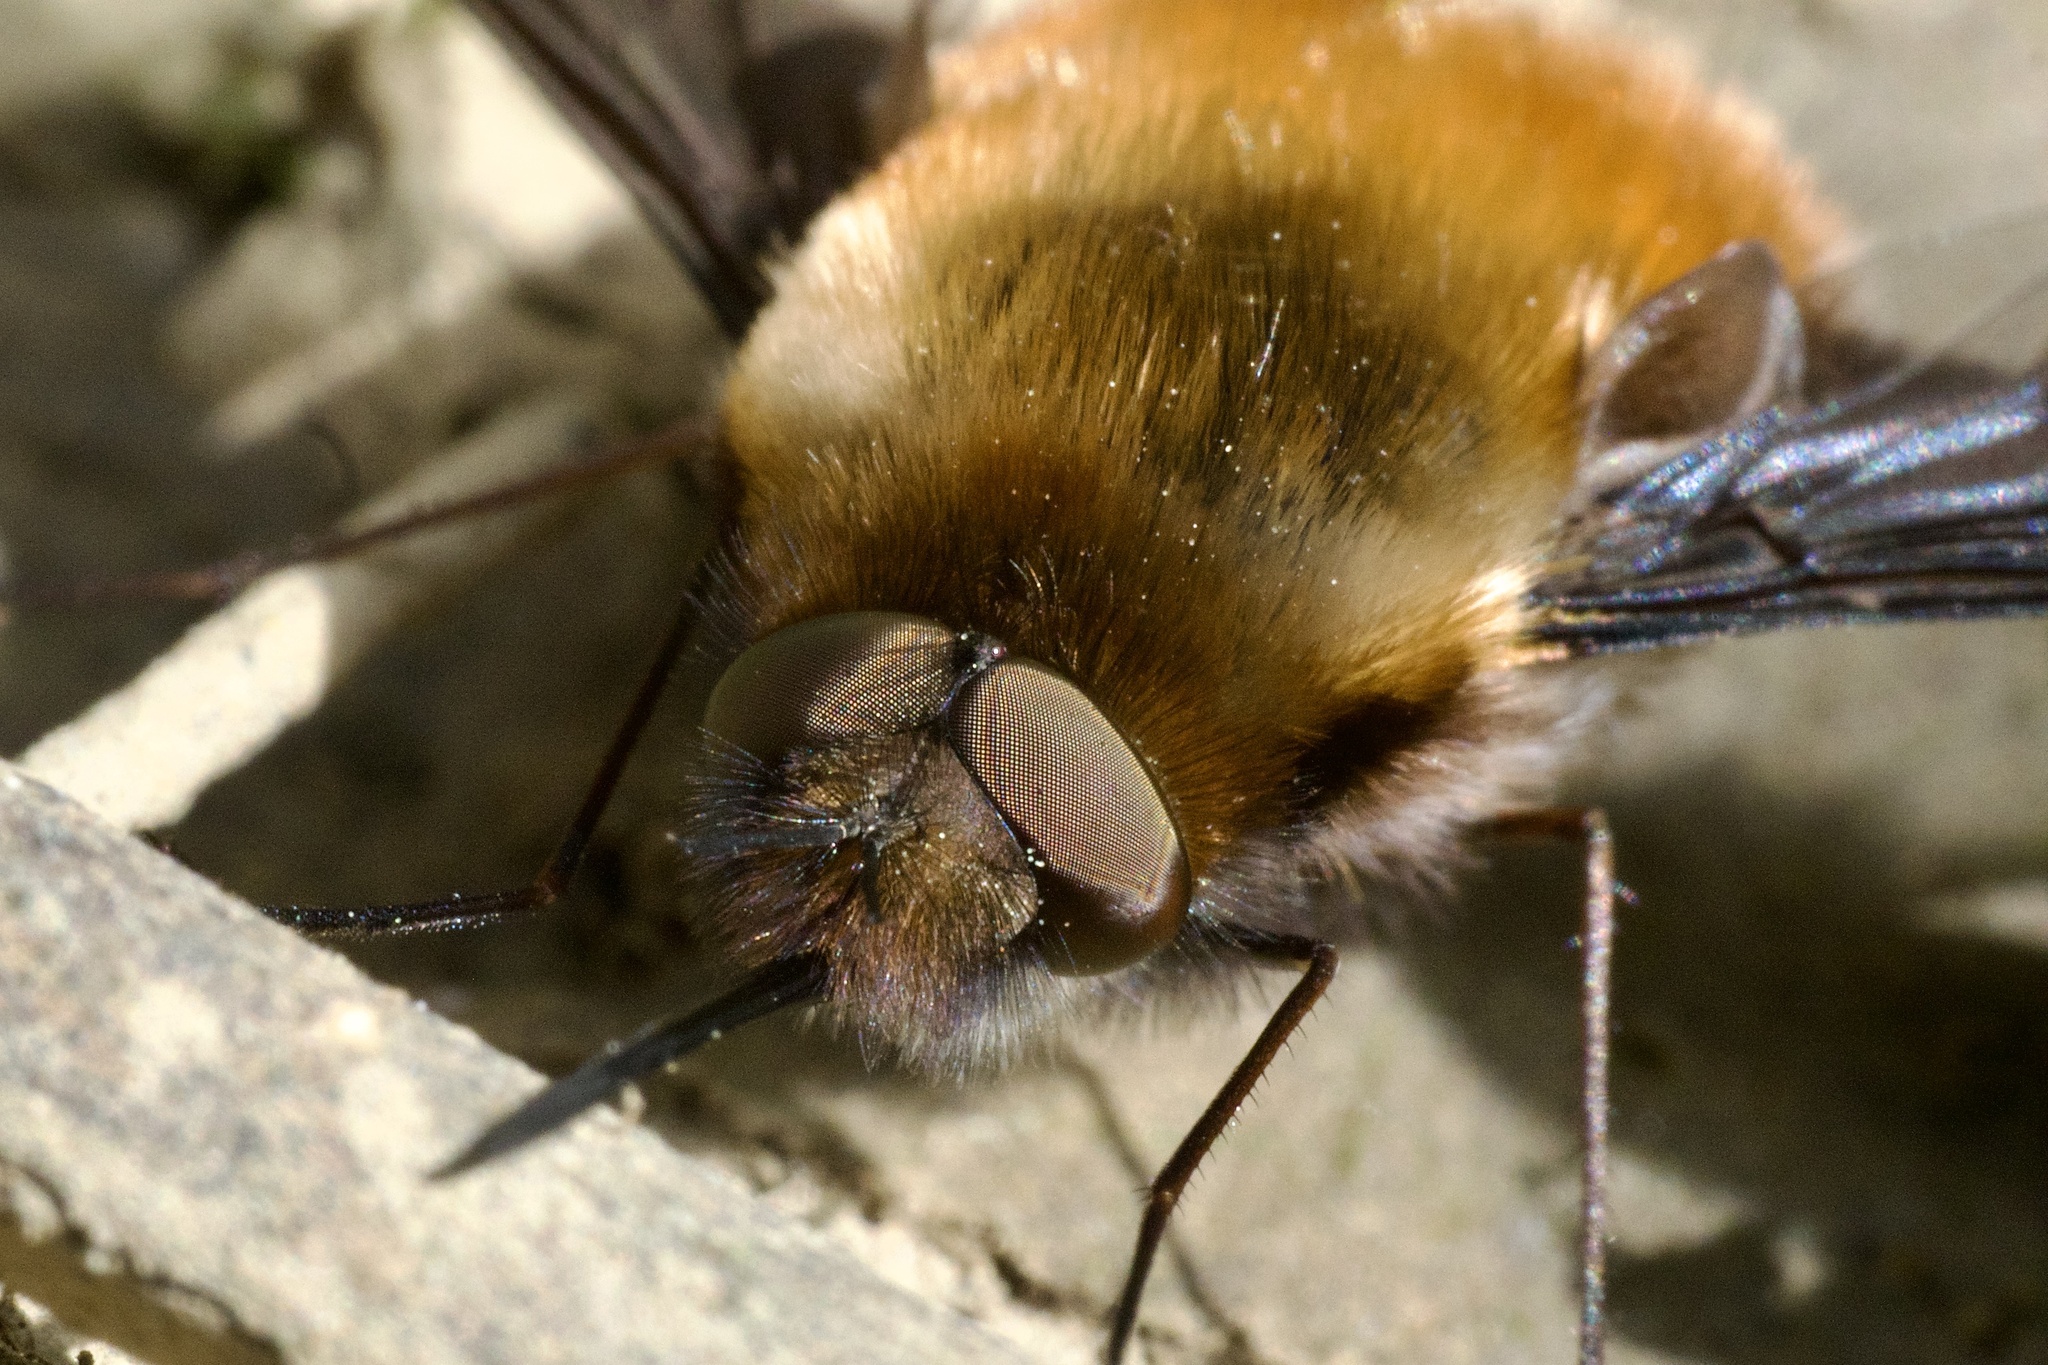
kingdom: Animalia
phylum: Arthropoda
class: Insecta
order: Diptera
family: Bombyliidae
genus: Bombylius
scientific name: Bombylius major
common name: Bee fly
